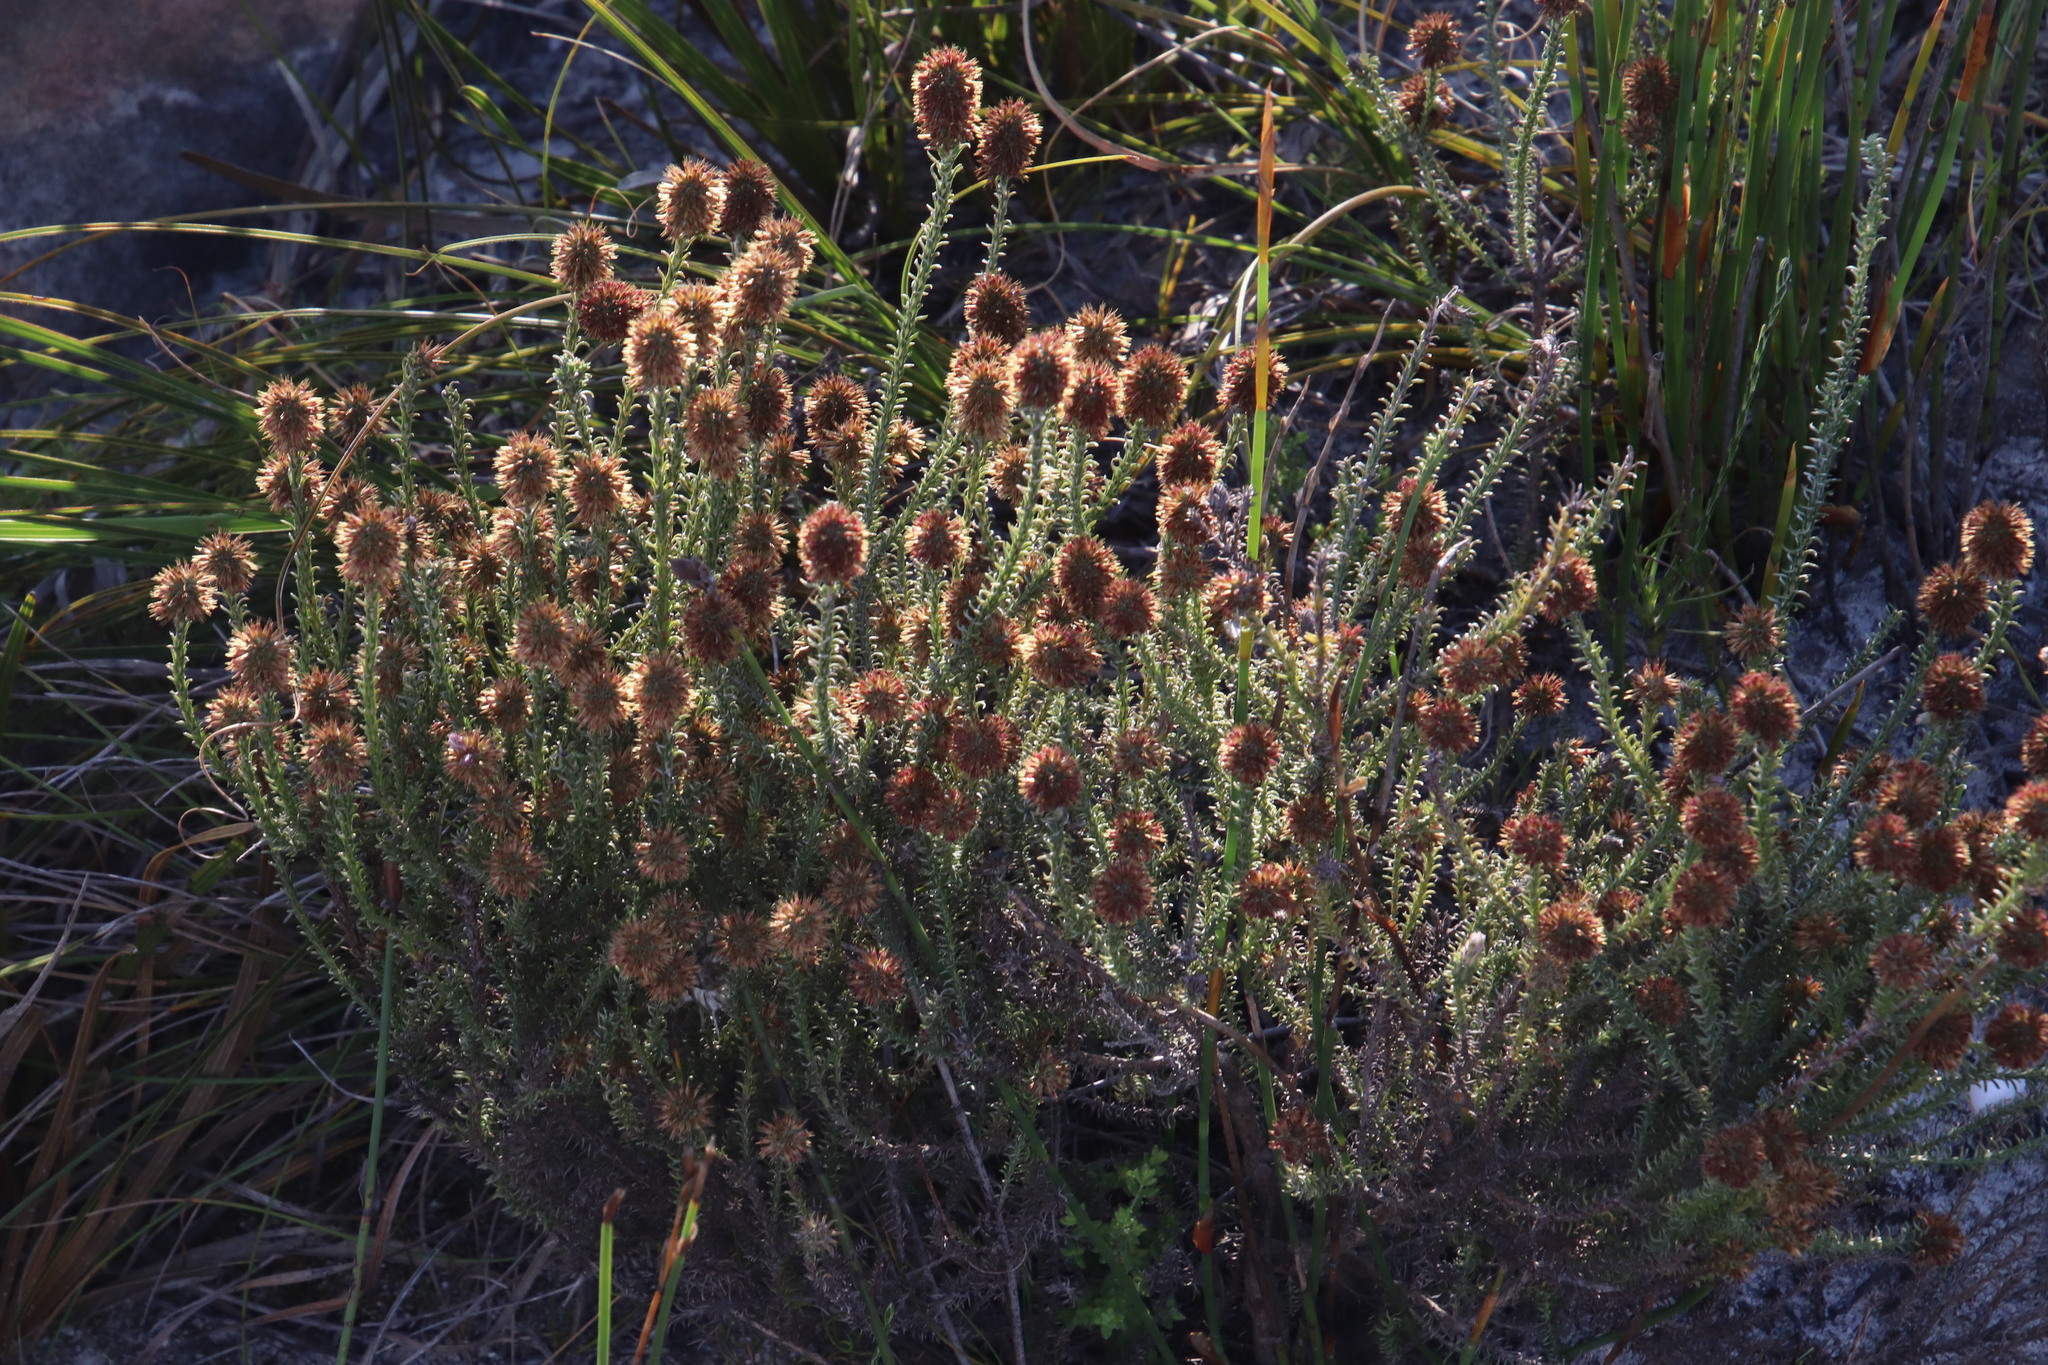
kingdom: Plantae
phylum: Tracheophyta
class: Magnoliopsida
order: Asterales
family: Asteraceae
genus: Seriphium
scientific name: Seriphium spirale
